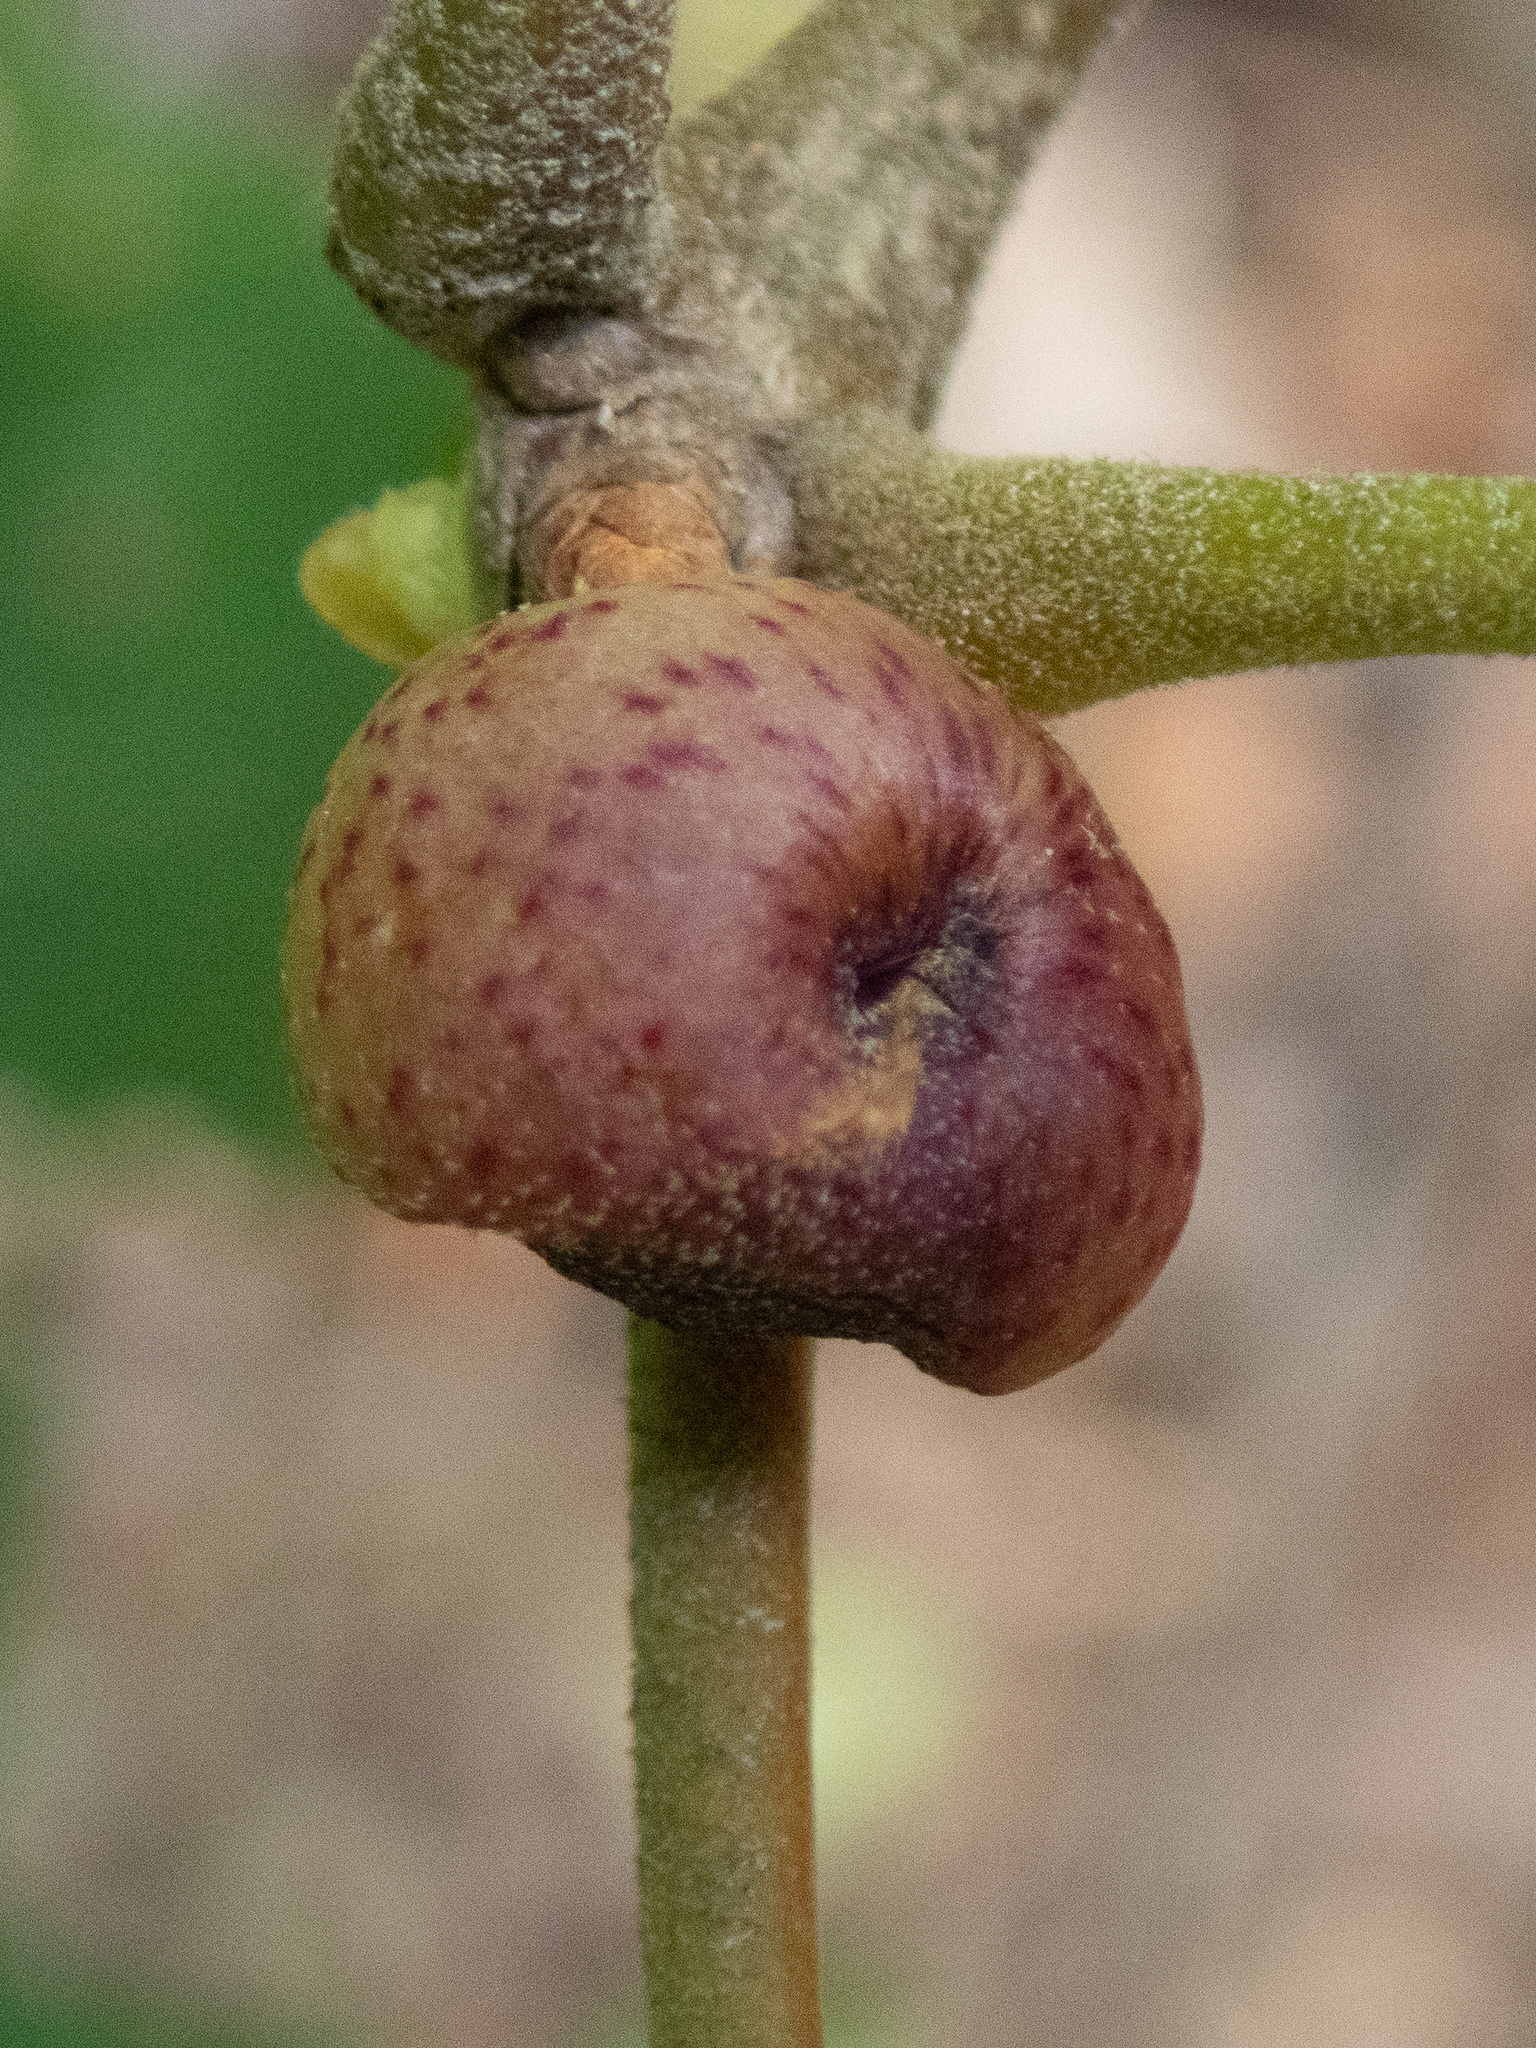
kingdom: Animalia
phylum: Arthropoda
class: Insecta
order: Hymenoptera
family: Cynipidae
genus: Amphibolips
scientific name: Amphibolips
